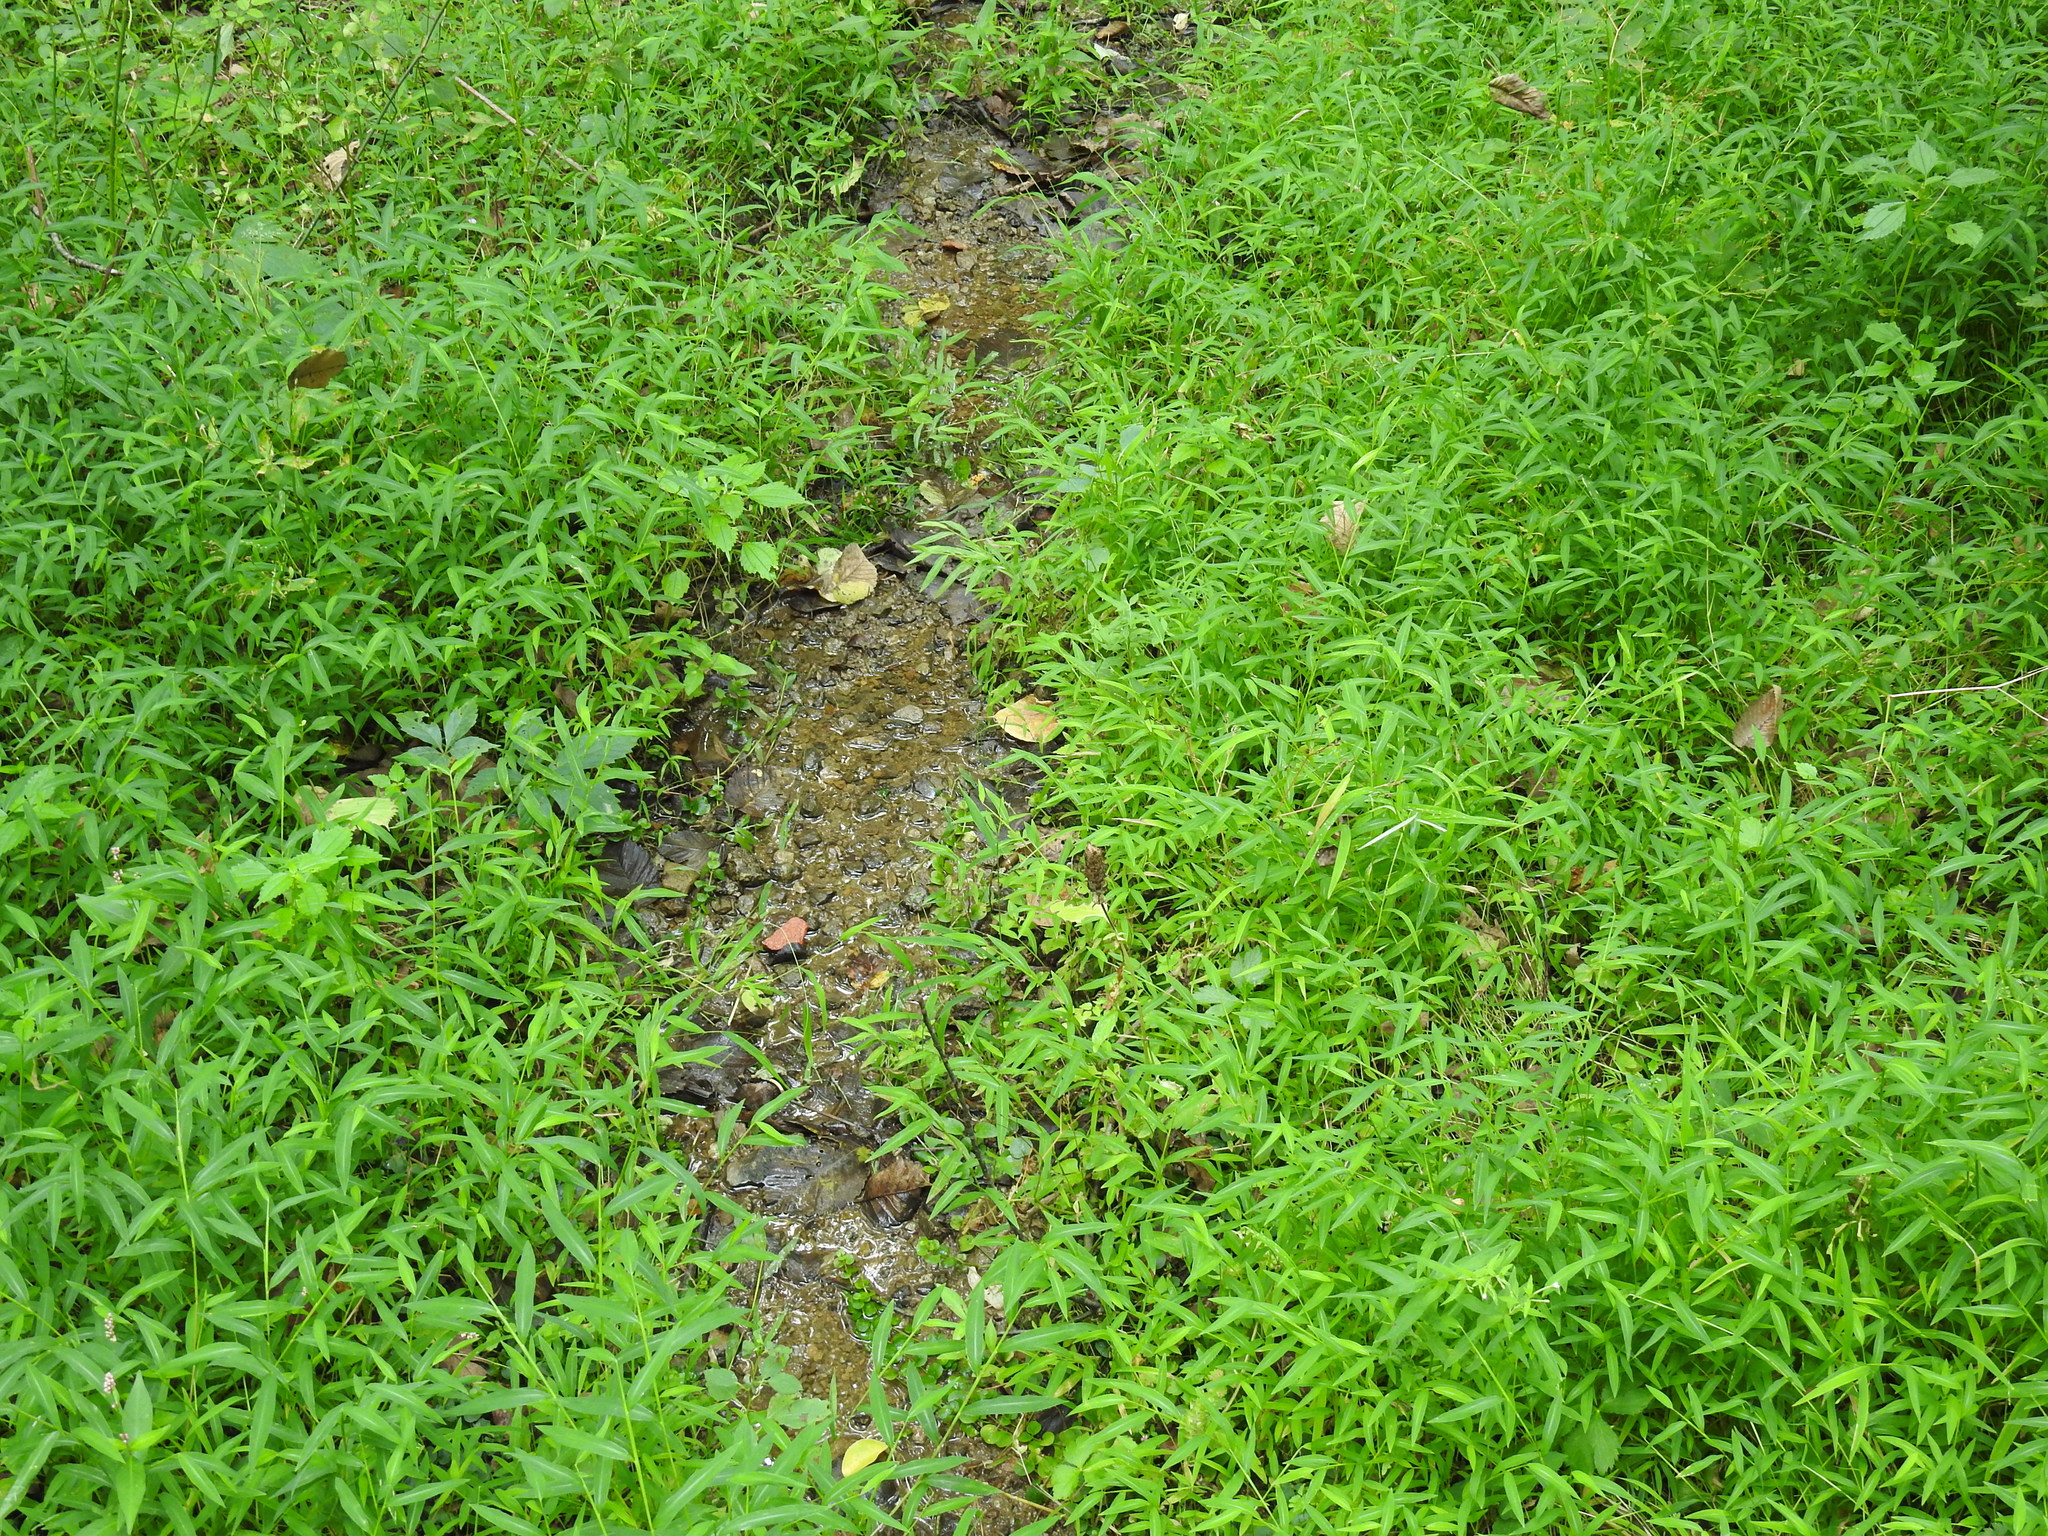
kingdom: Plantae
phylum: Tracheophyta
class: Liliopsida
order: Poales
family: Poaceae
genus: Microstegium
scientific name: Microstegium vimineum
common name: Japanese stiltgrass
